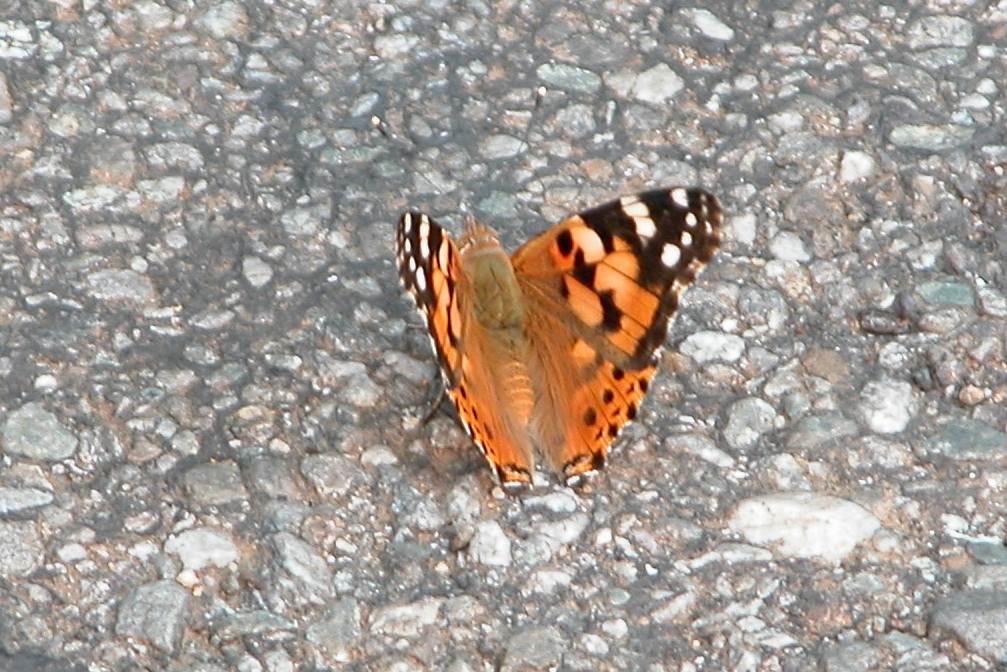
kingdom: Animalia
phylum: Arthropoda
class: Insecta
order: Lepidoptera
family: Nymphalidae
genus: Vanessa
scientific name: Vanessa cardui
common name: Painted lady
